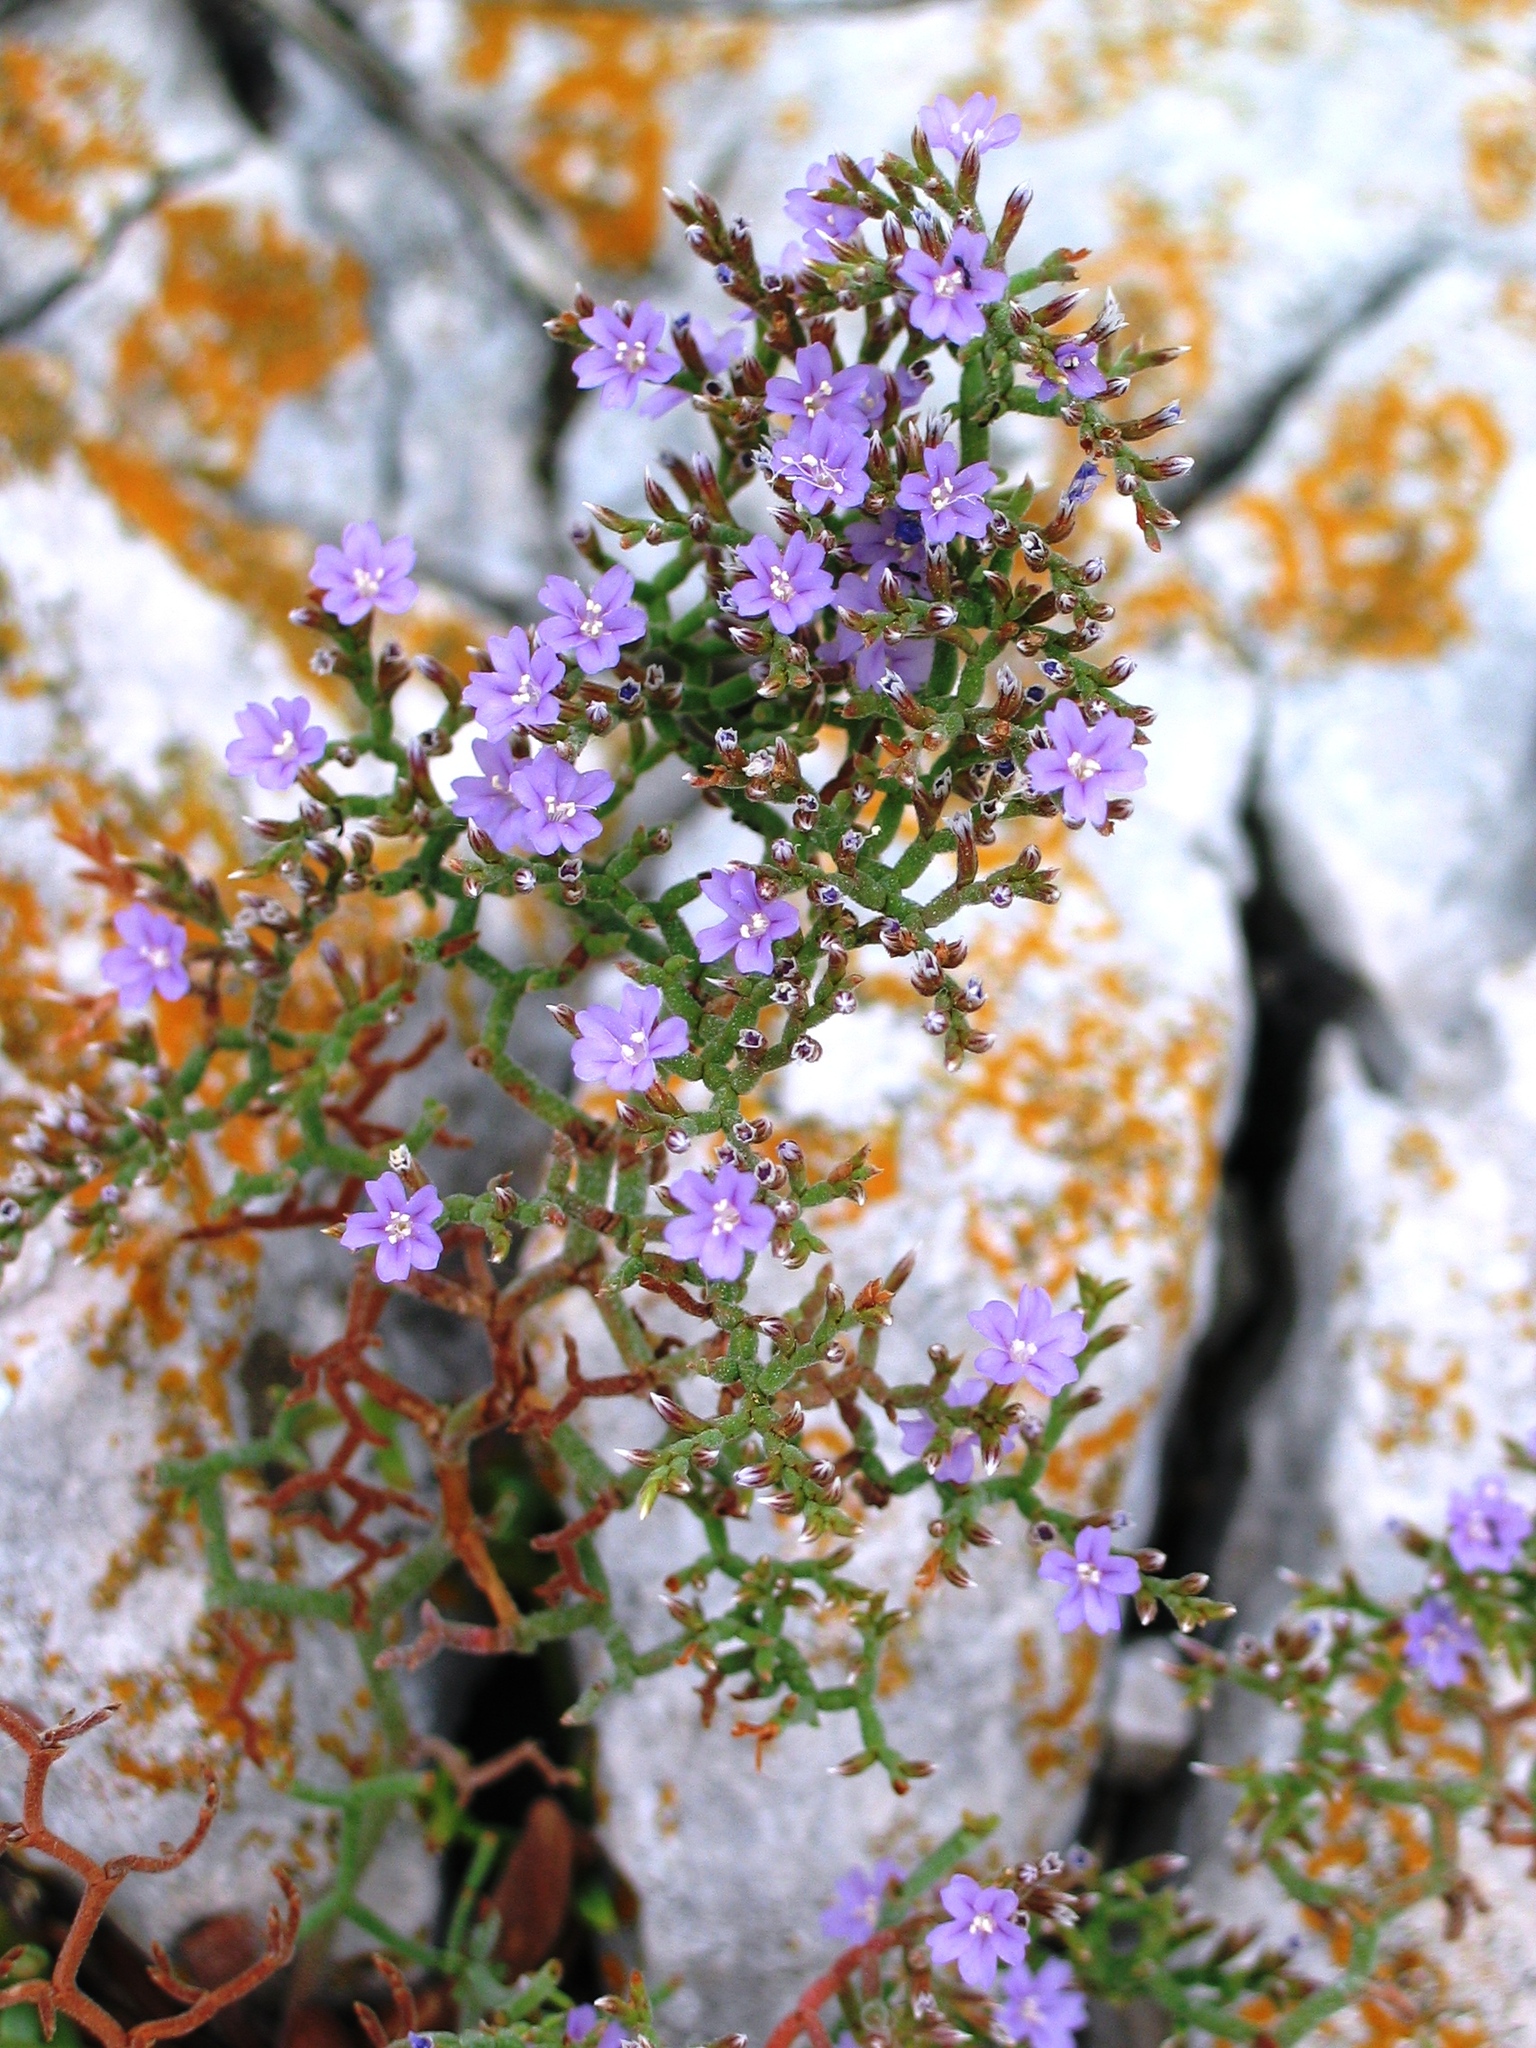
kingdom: Plantae
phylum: Tracheophyta
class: Magnoliopsida
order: Caryophyllales
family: Plumbaginaceae
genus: Limonium
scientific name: Limonium cancellatum
